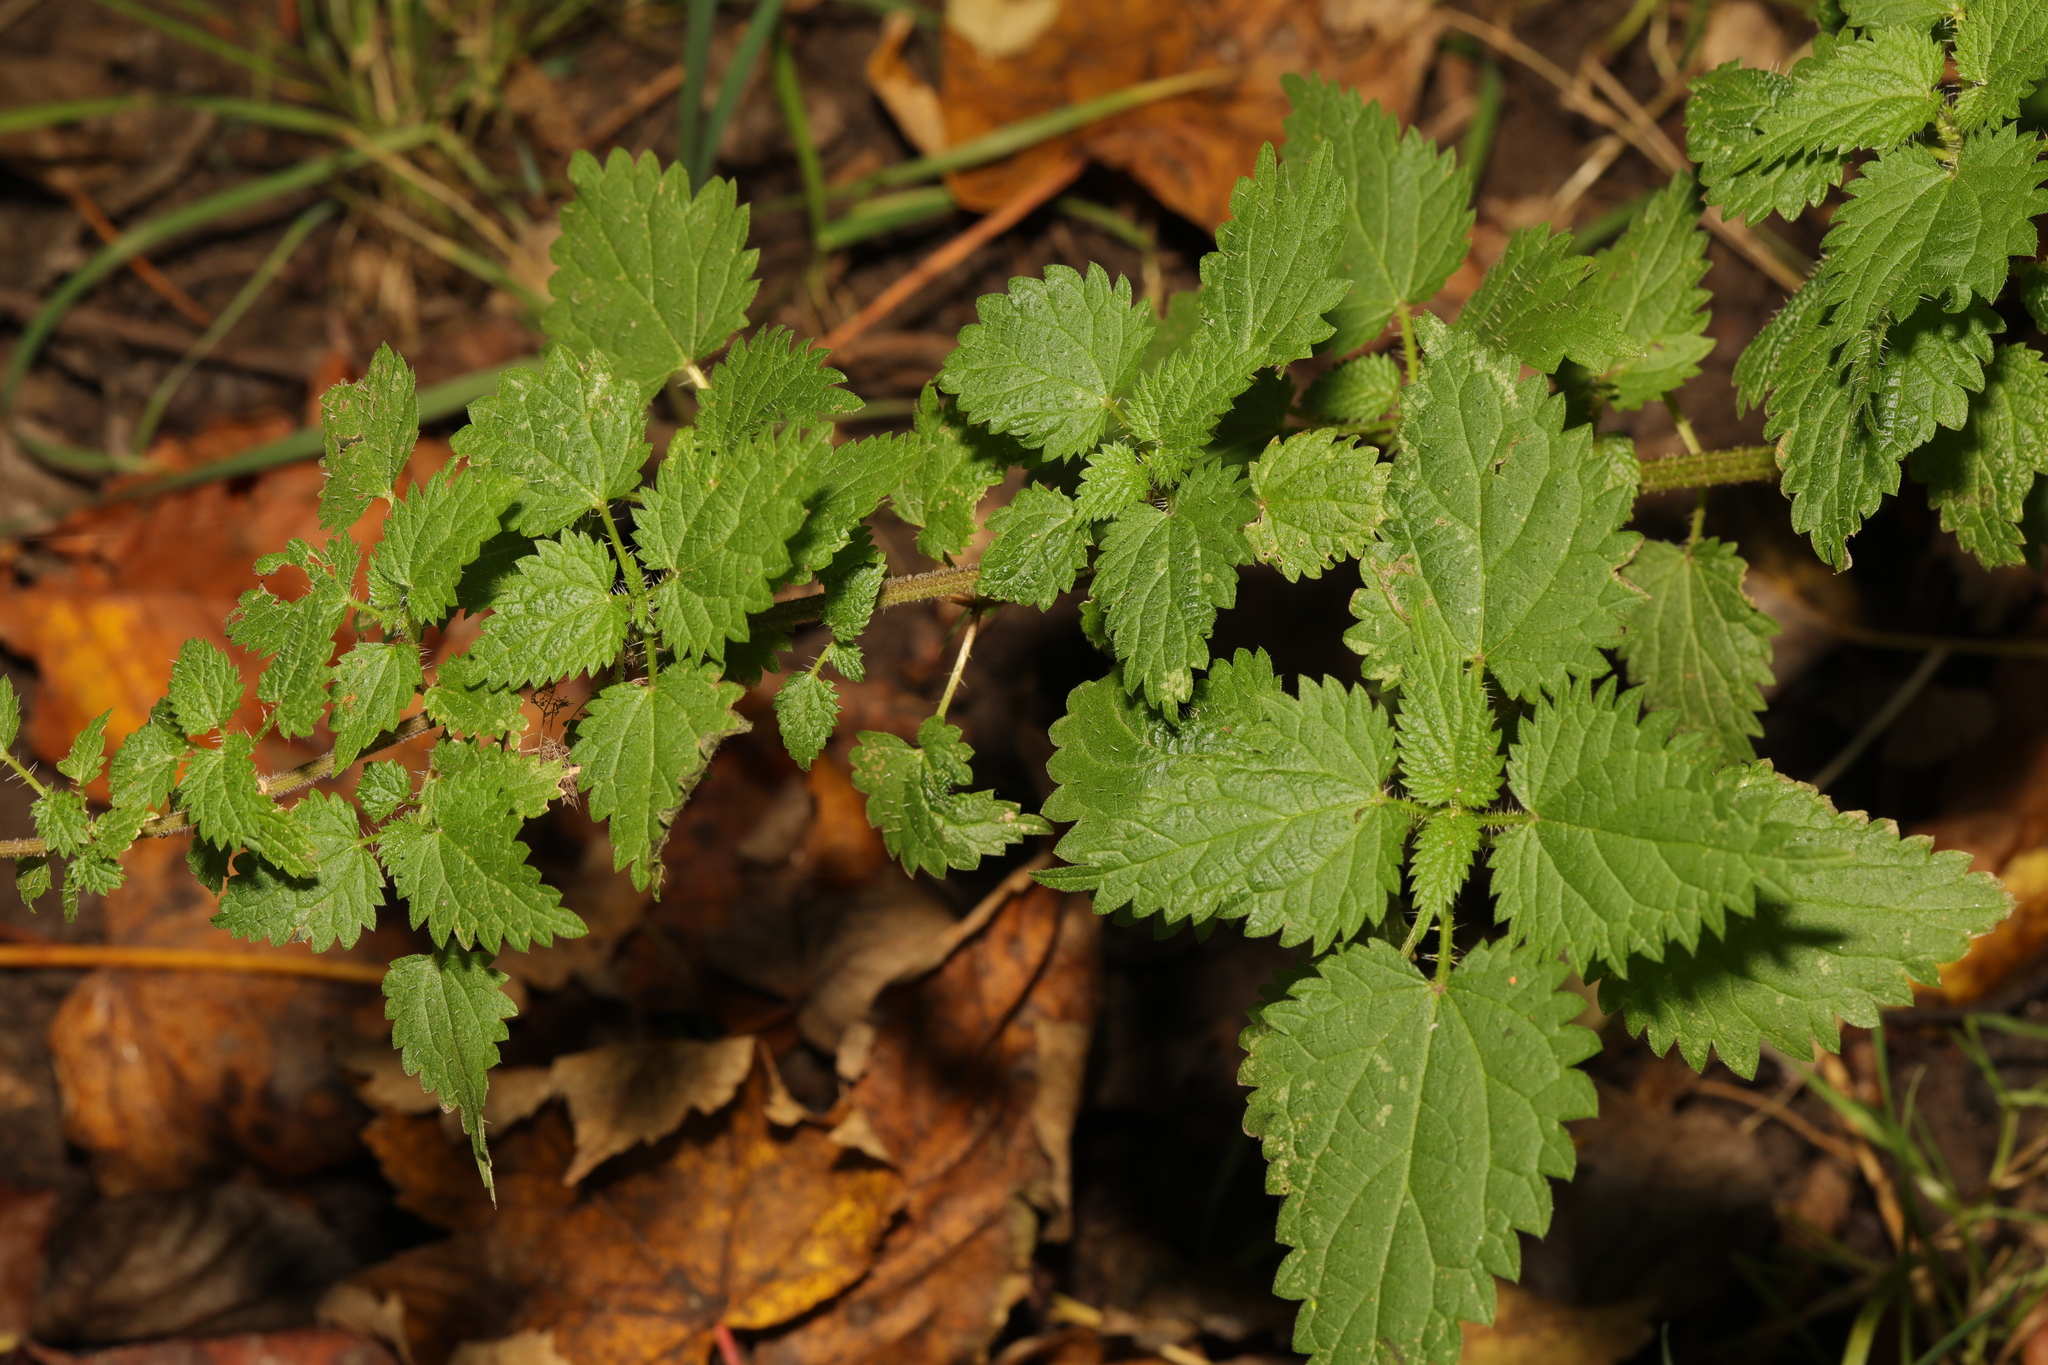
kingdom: Plantae
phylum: Tracheophyta
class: Magnoliopsida
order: Rosales
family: Urticaceae
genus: Urtica
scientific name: Urtica dioica
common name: Common nettle
